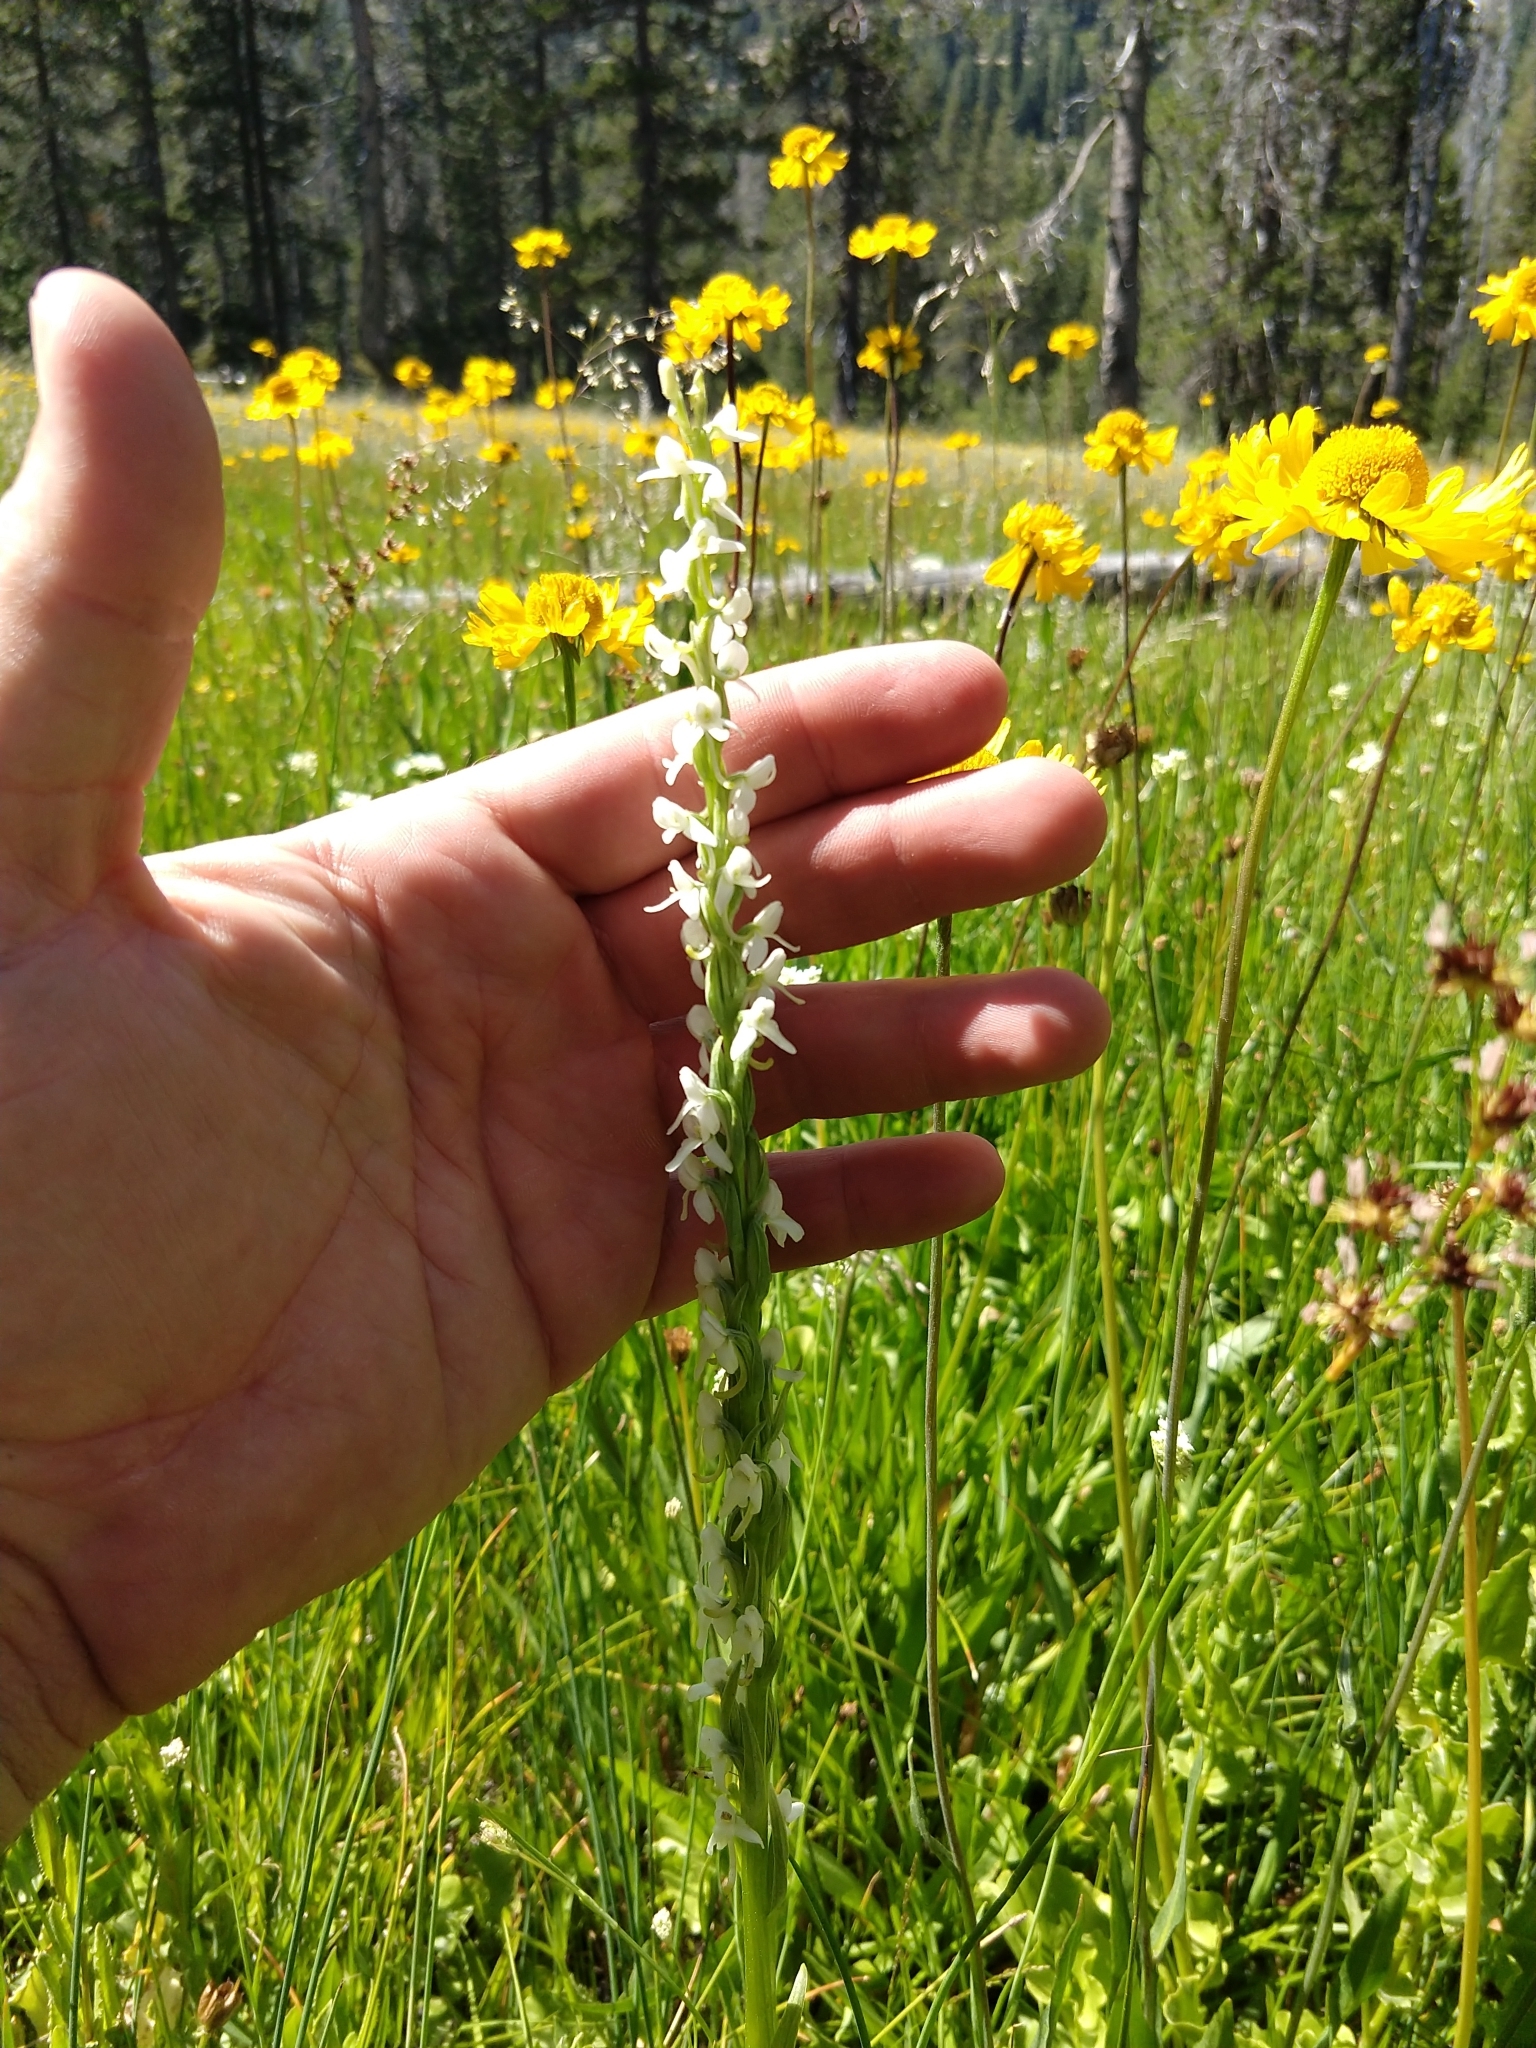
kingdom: Plantae
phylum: Tracheophyta
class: Liliopsida
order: Asparagales
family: Orchidaceae
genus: Platanthera
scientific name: Platanthera dilatata
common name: Bog candles
